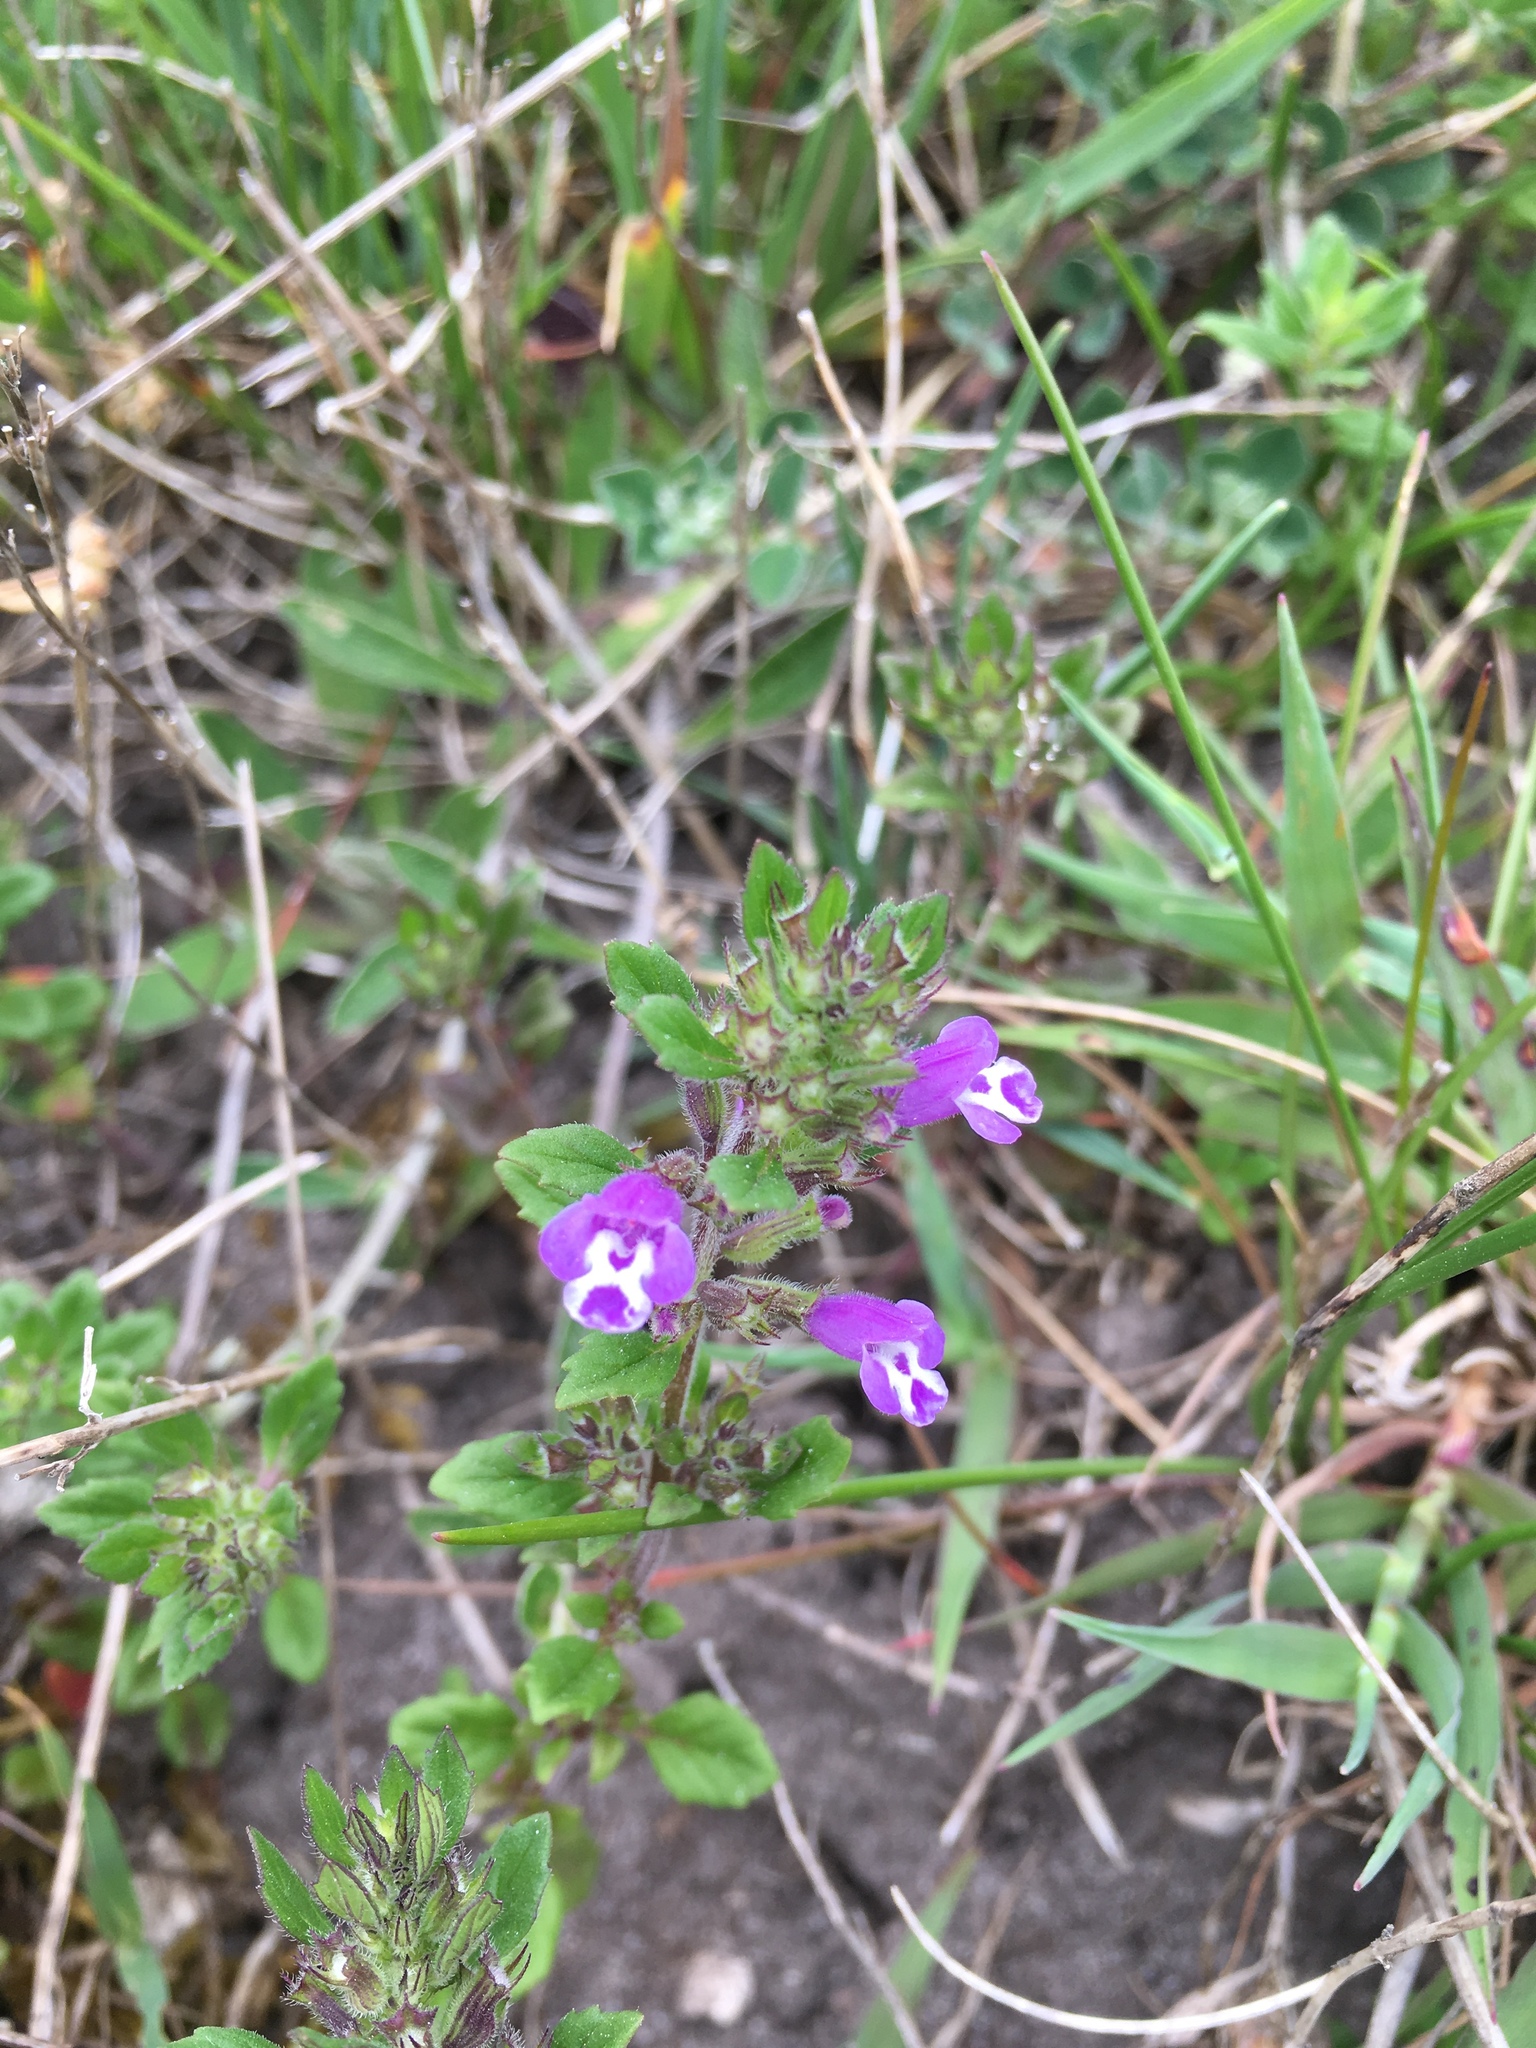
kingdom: Plantae
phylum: Tracheophyta
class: Magnoliopsida
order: Lamiales
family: Lamiaceae
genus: Clinopodium
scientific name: Clinopodium acinos
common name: Basil thyme
